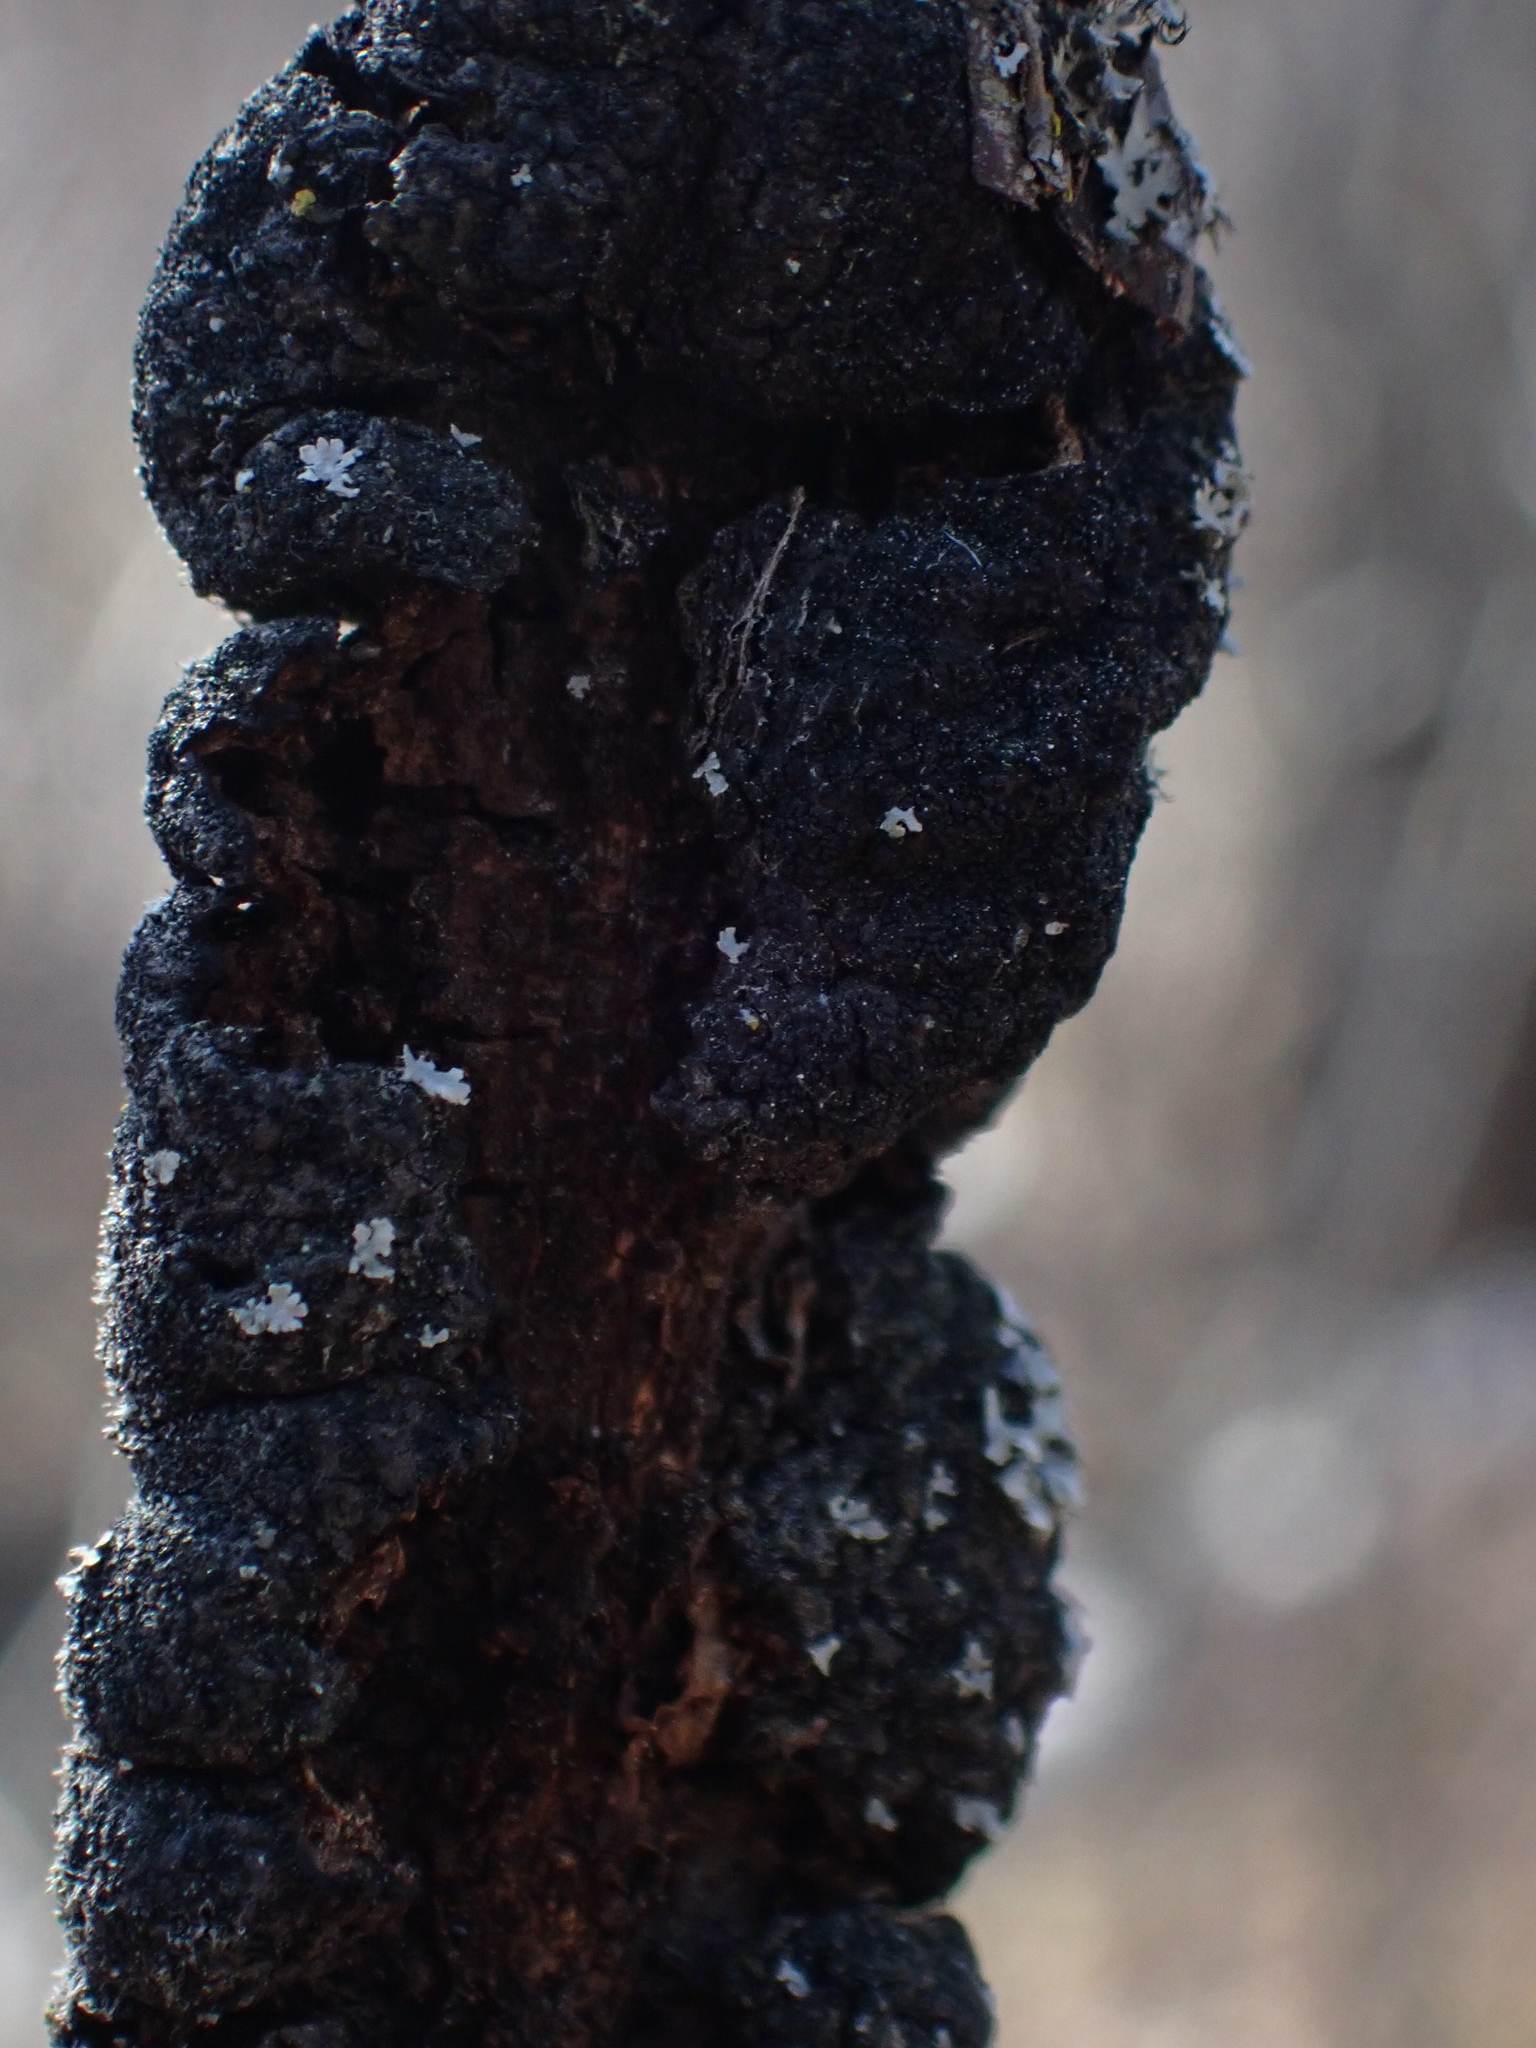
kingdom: Fungi
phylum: Ascomycota
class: Dothideomycetes
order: Venturiales
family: Venturiaceae
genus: Apiosporina
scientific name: Apiosporina morbosa
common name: Black knot
